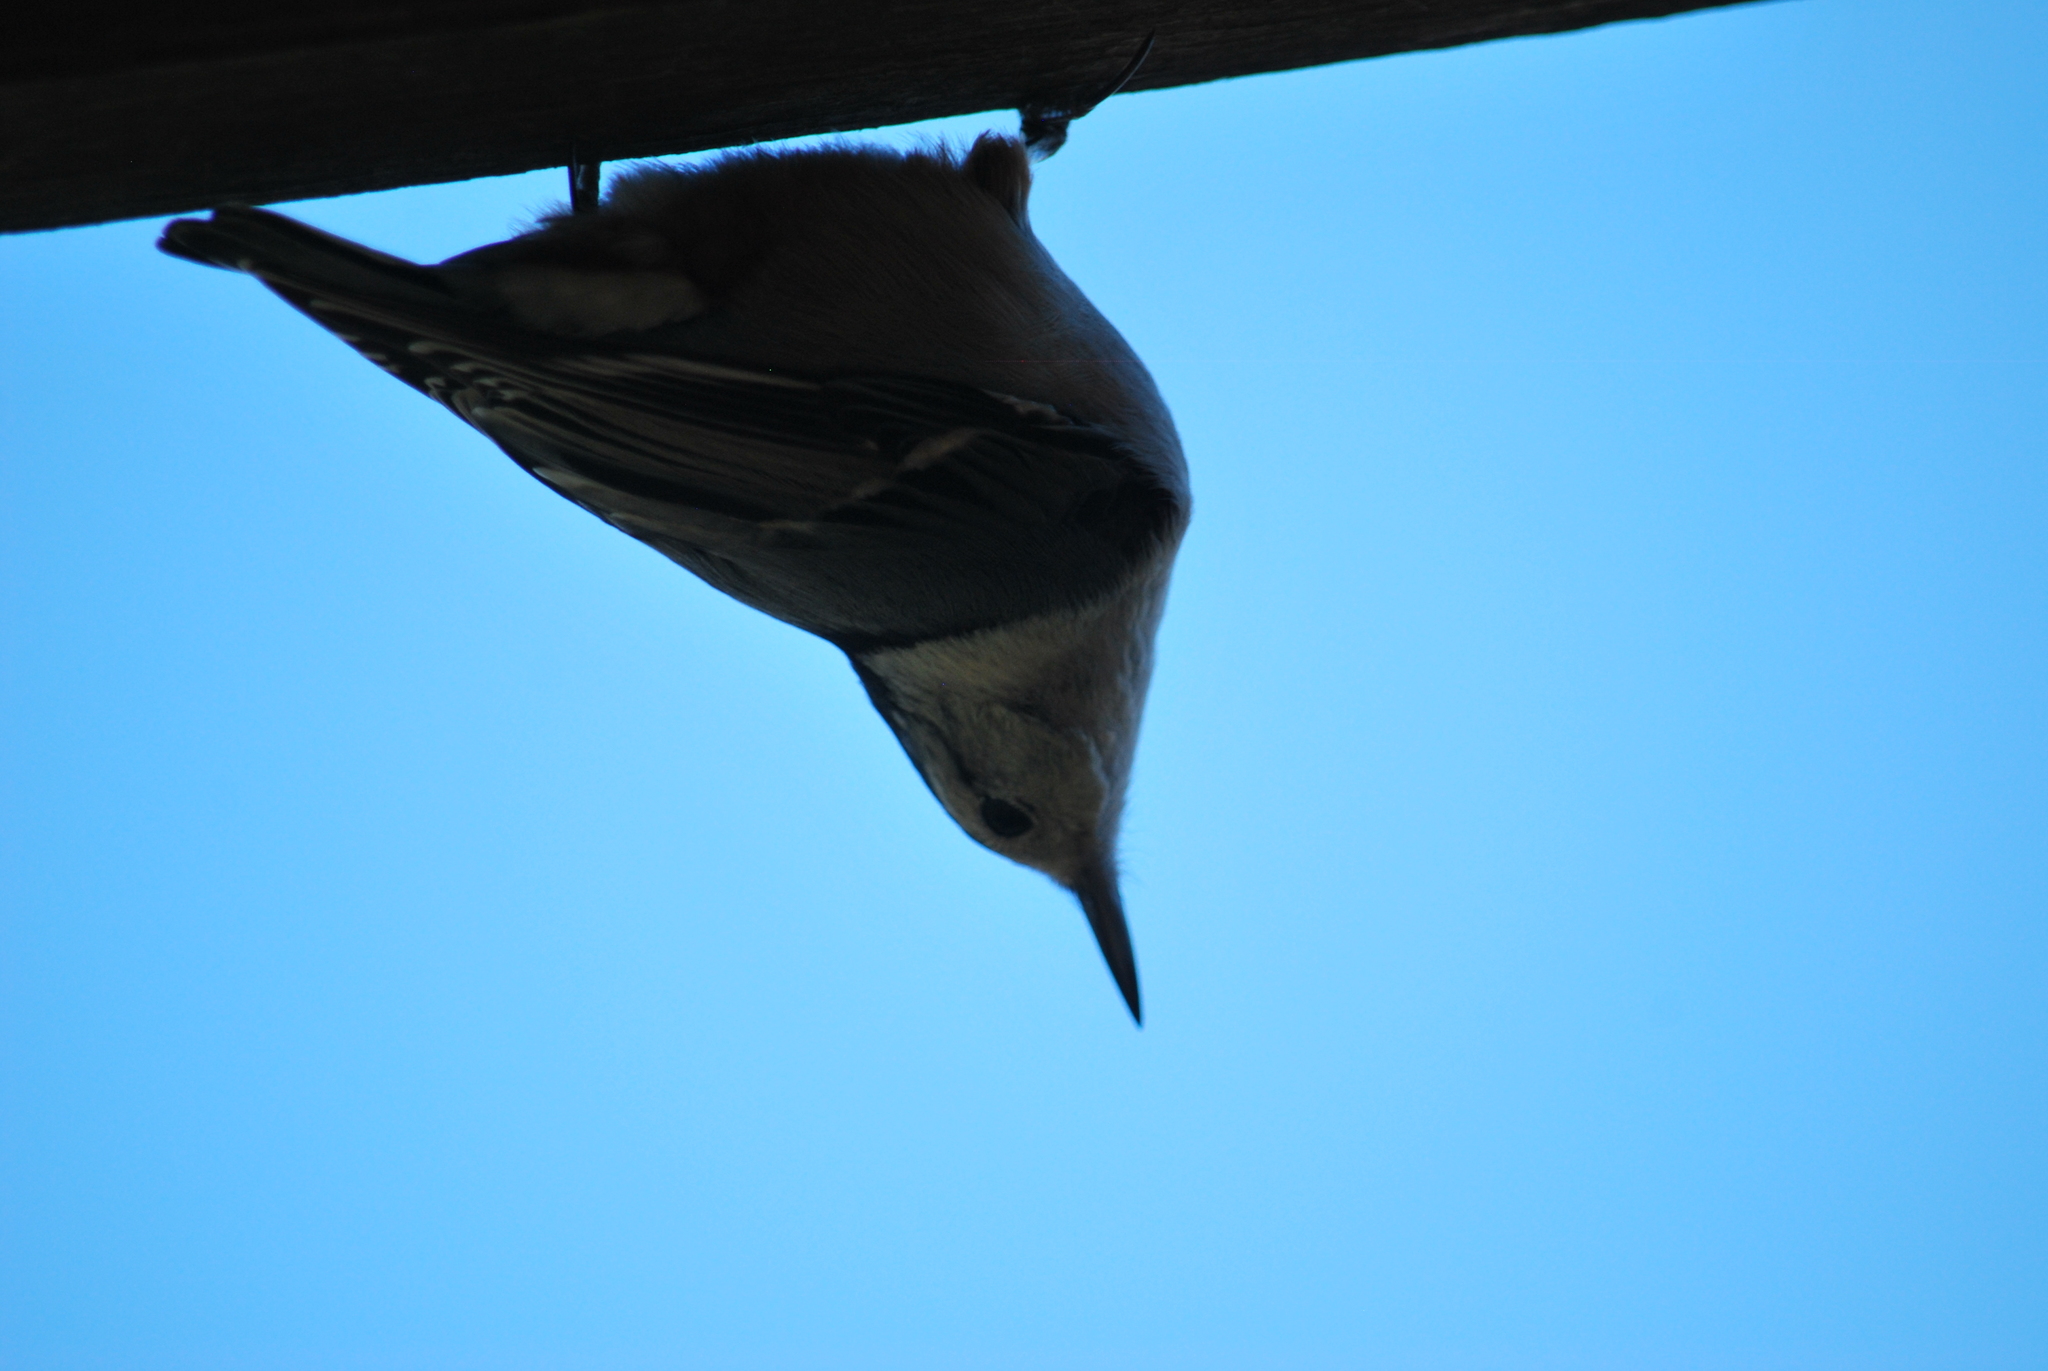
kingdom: Animalia
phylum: Chordata
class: Aves
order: Passeriformes
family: Sittidae
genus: Sitta
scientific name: Sitta carolinensis
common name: White-breasted nuthatch
